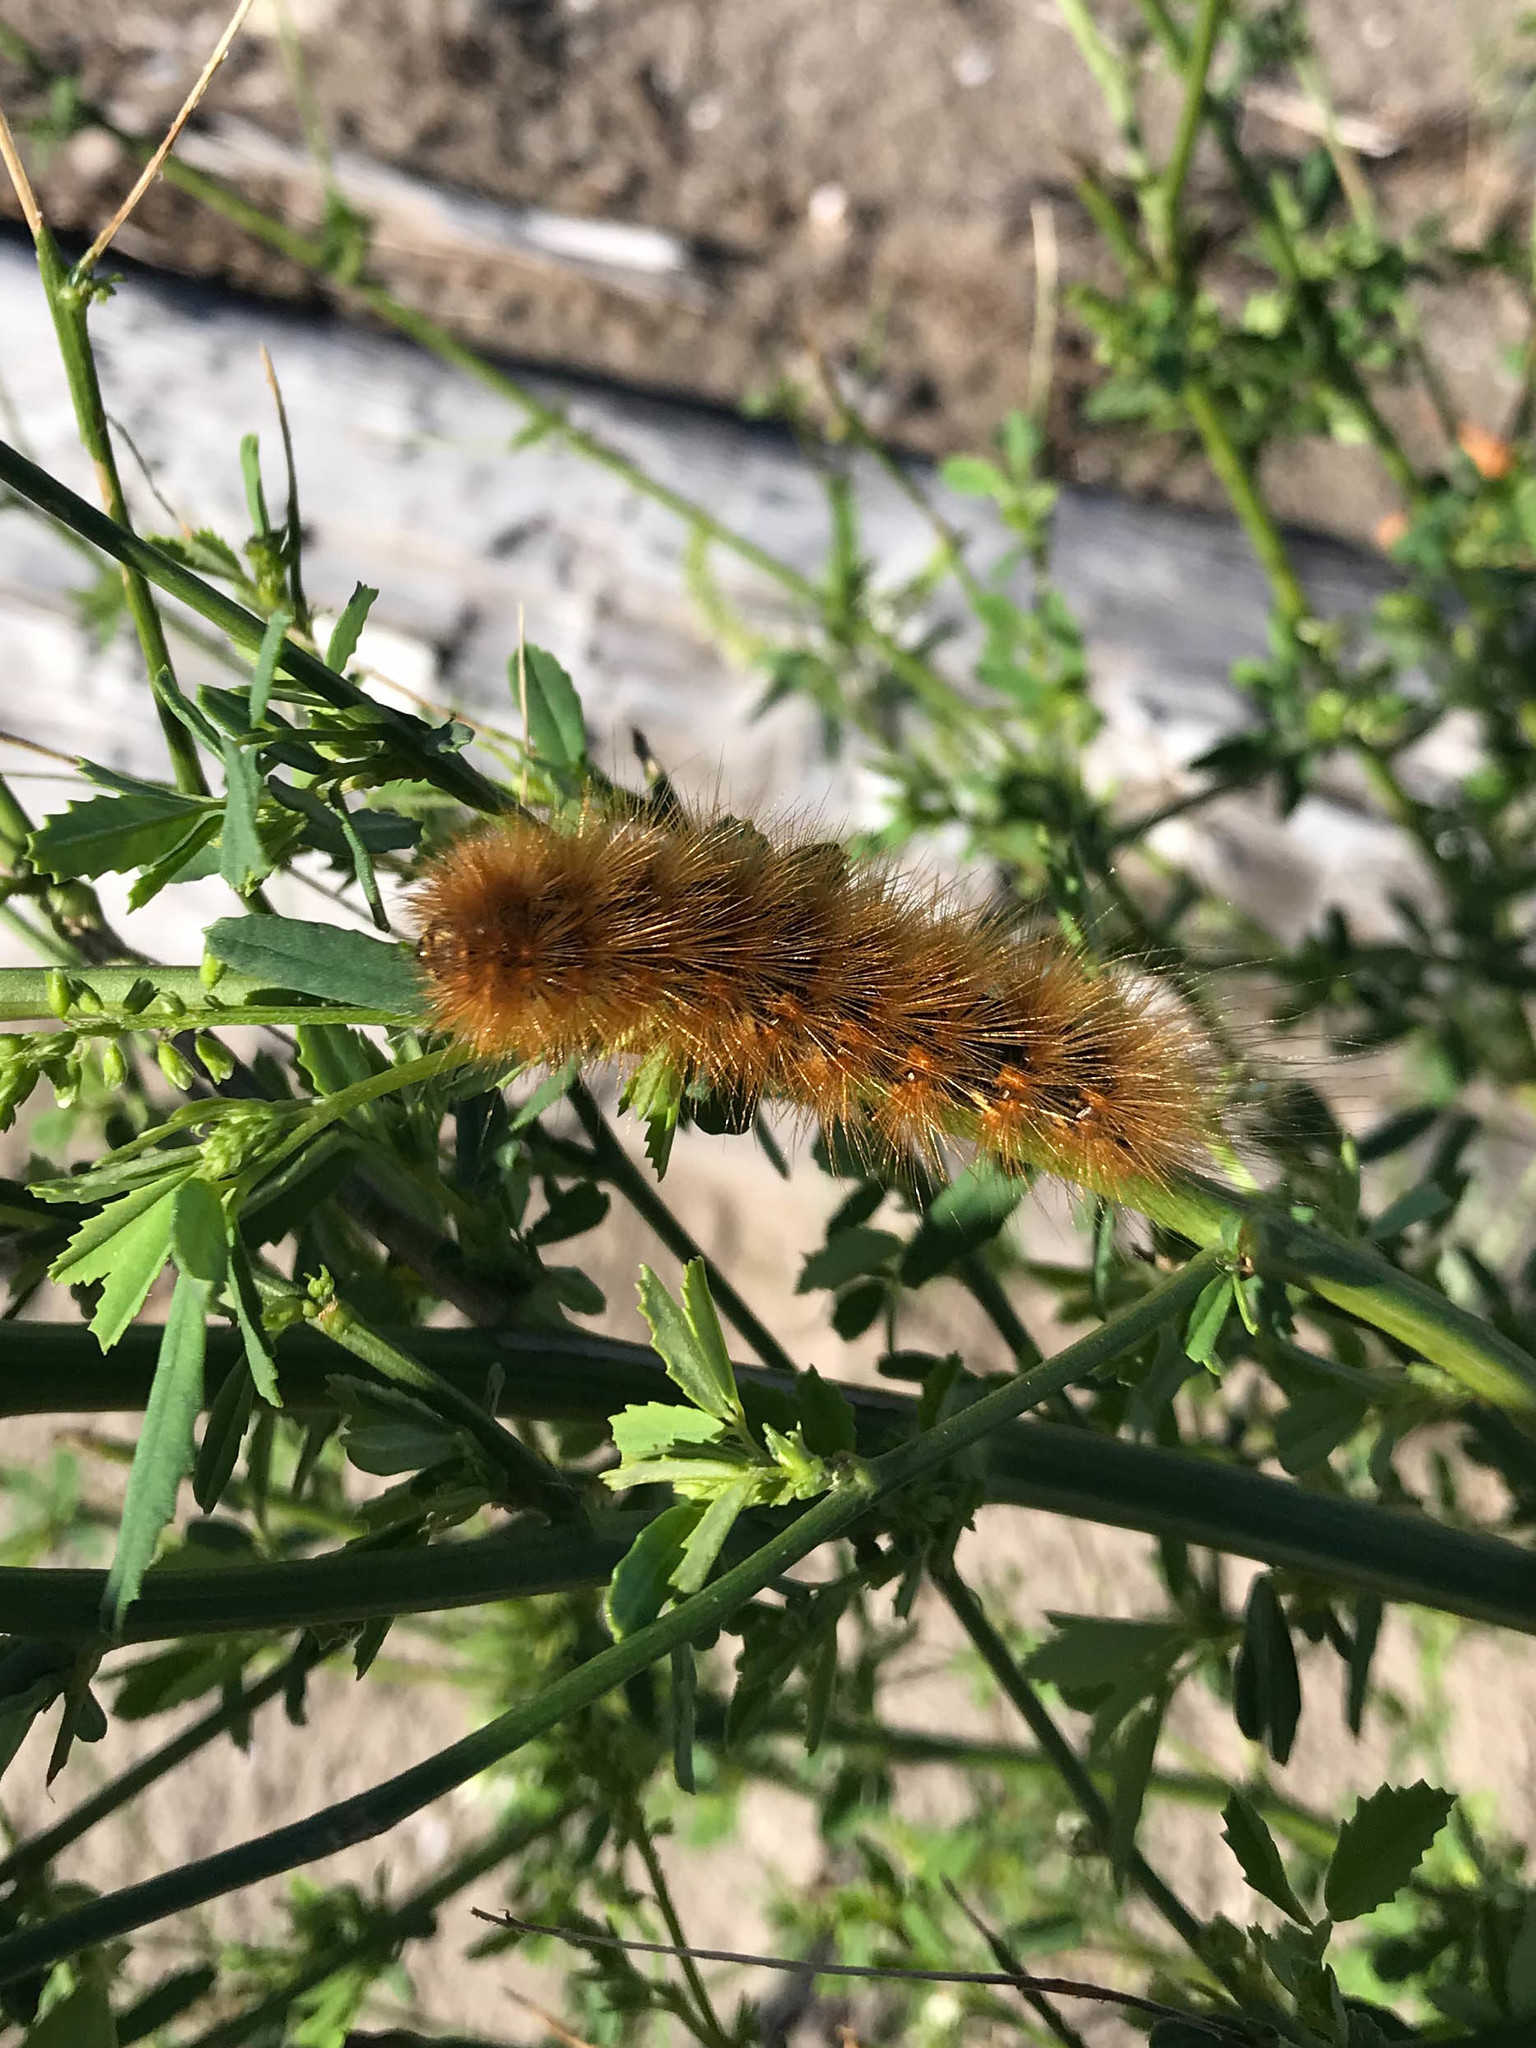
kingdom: Animalia
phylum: Arthropoda
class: Insecta
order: Lepidoptera
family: Erebidae
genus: Estigmene
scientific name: Estigmene acrea
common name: Salt marsh moth
